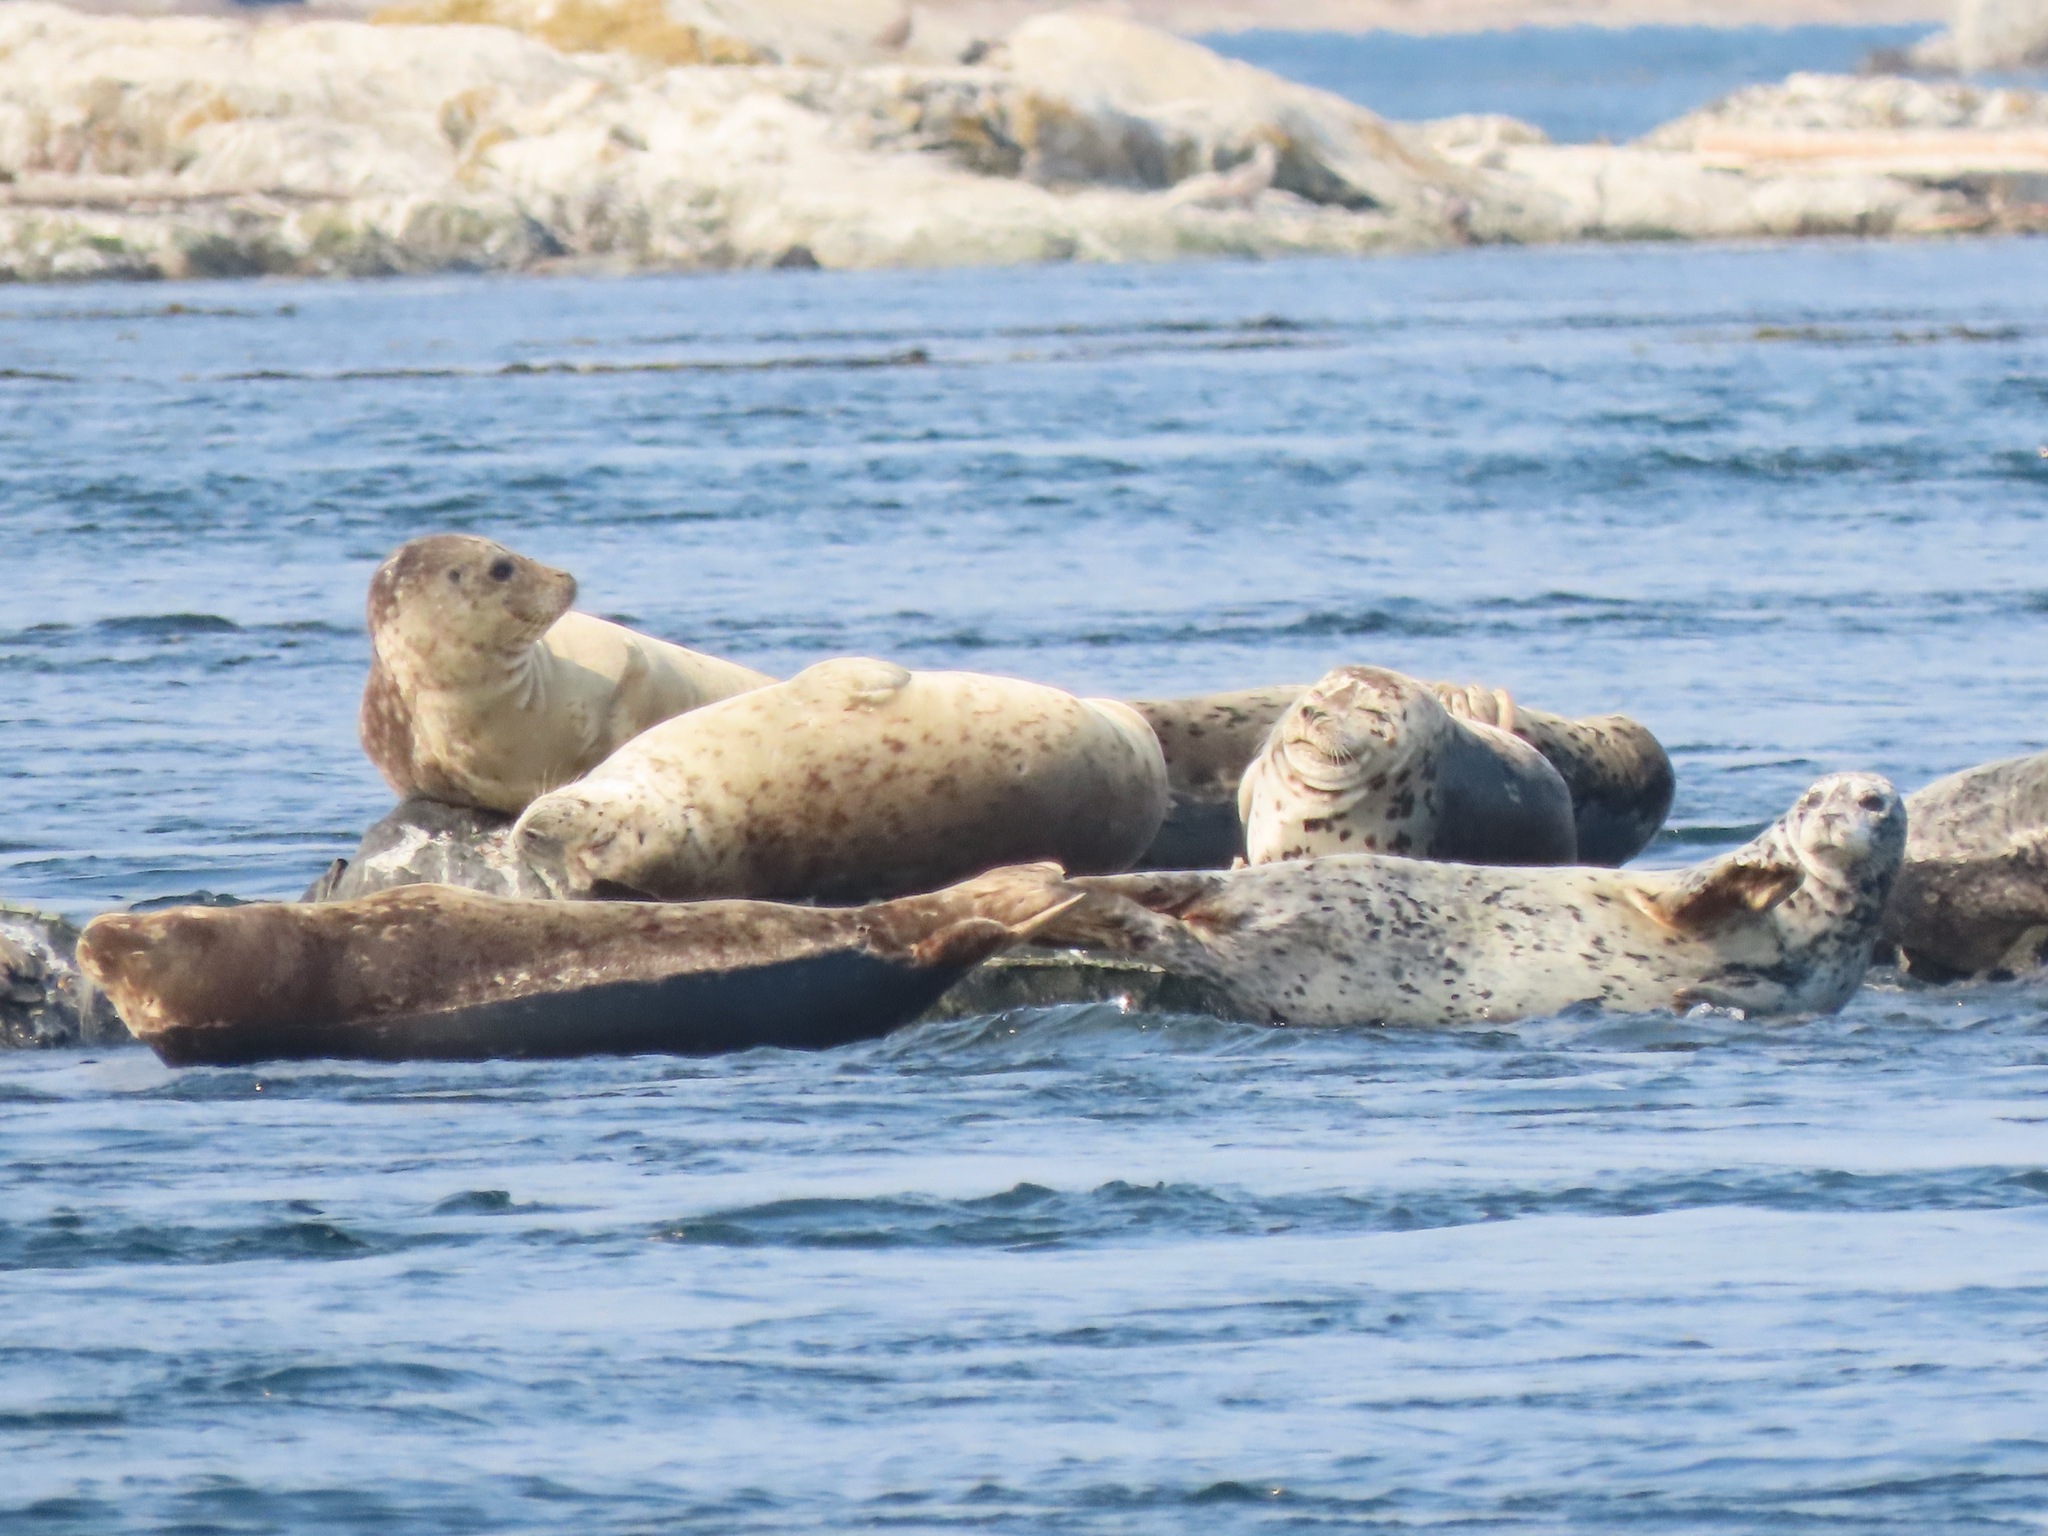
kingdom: Animalia
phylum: Chordata
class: Mammalia
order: Carnivora
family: Phocidae
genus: Phoca
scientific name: Phoca vitulina
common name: Harbor seal
